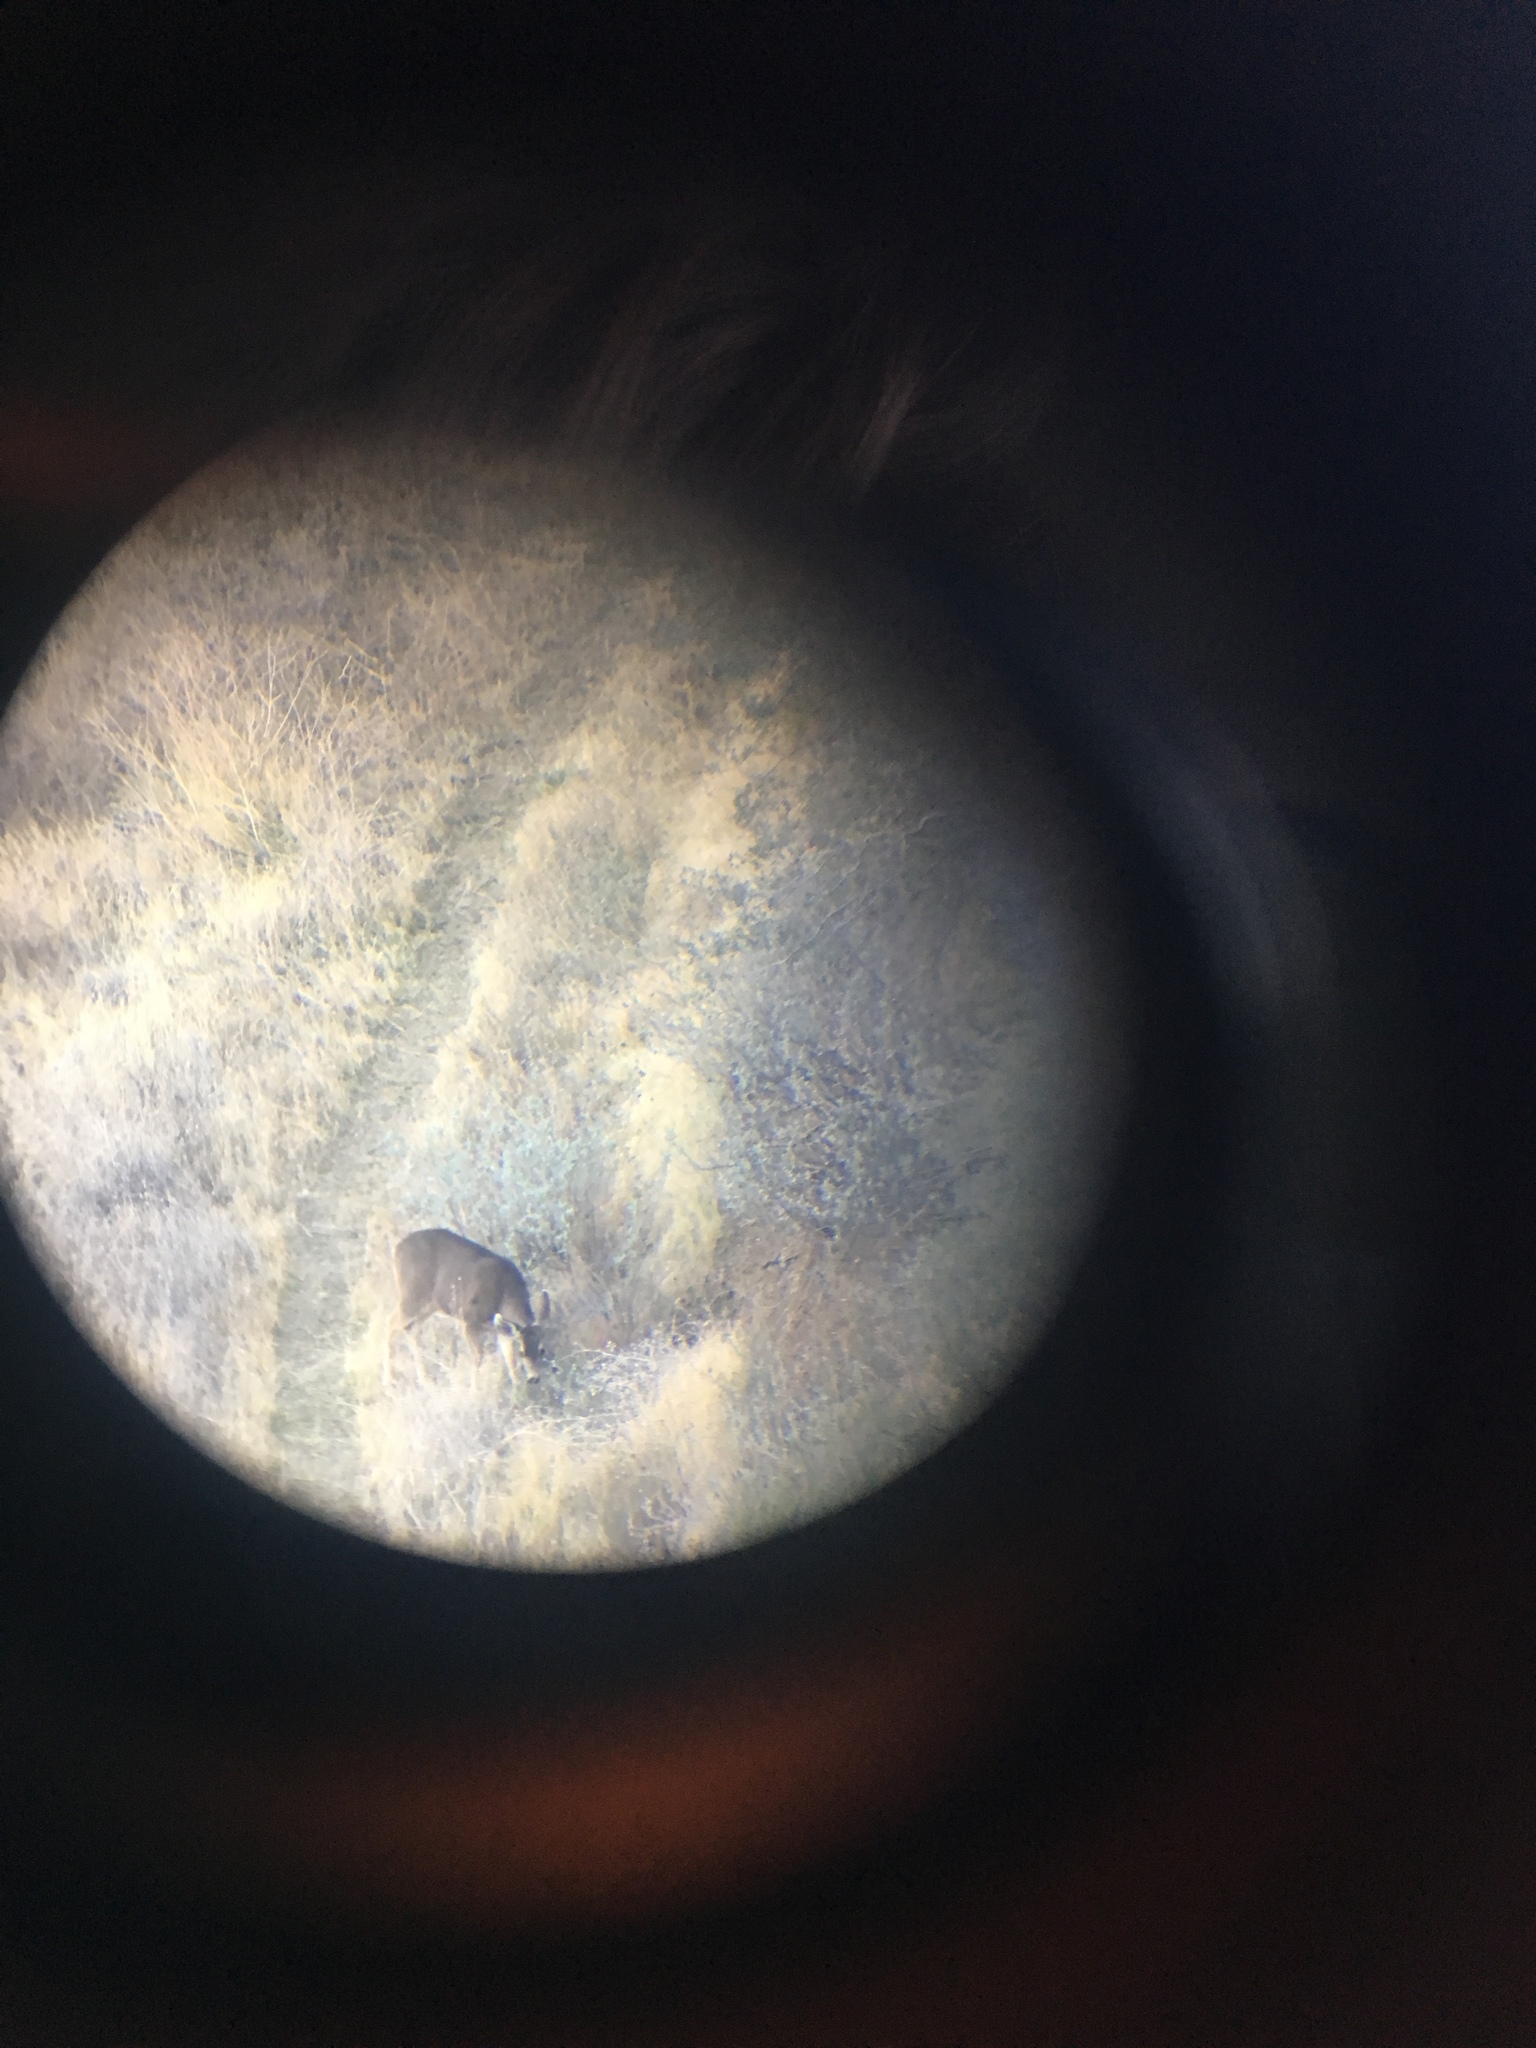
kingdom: Animalia
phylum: Chordata
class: Mammalia
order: Artiodactyla
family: Cervidae
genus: Odocoileus
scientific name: Odocoileus hemionus
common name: Mule deer
